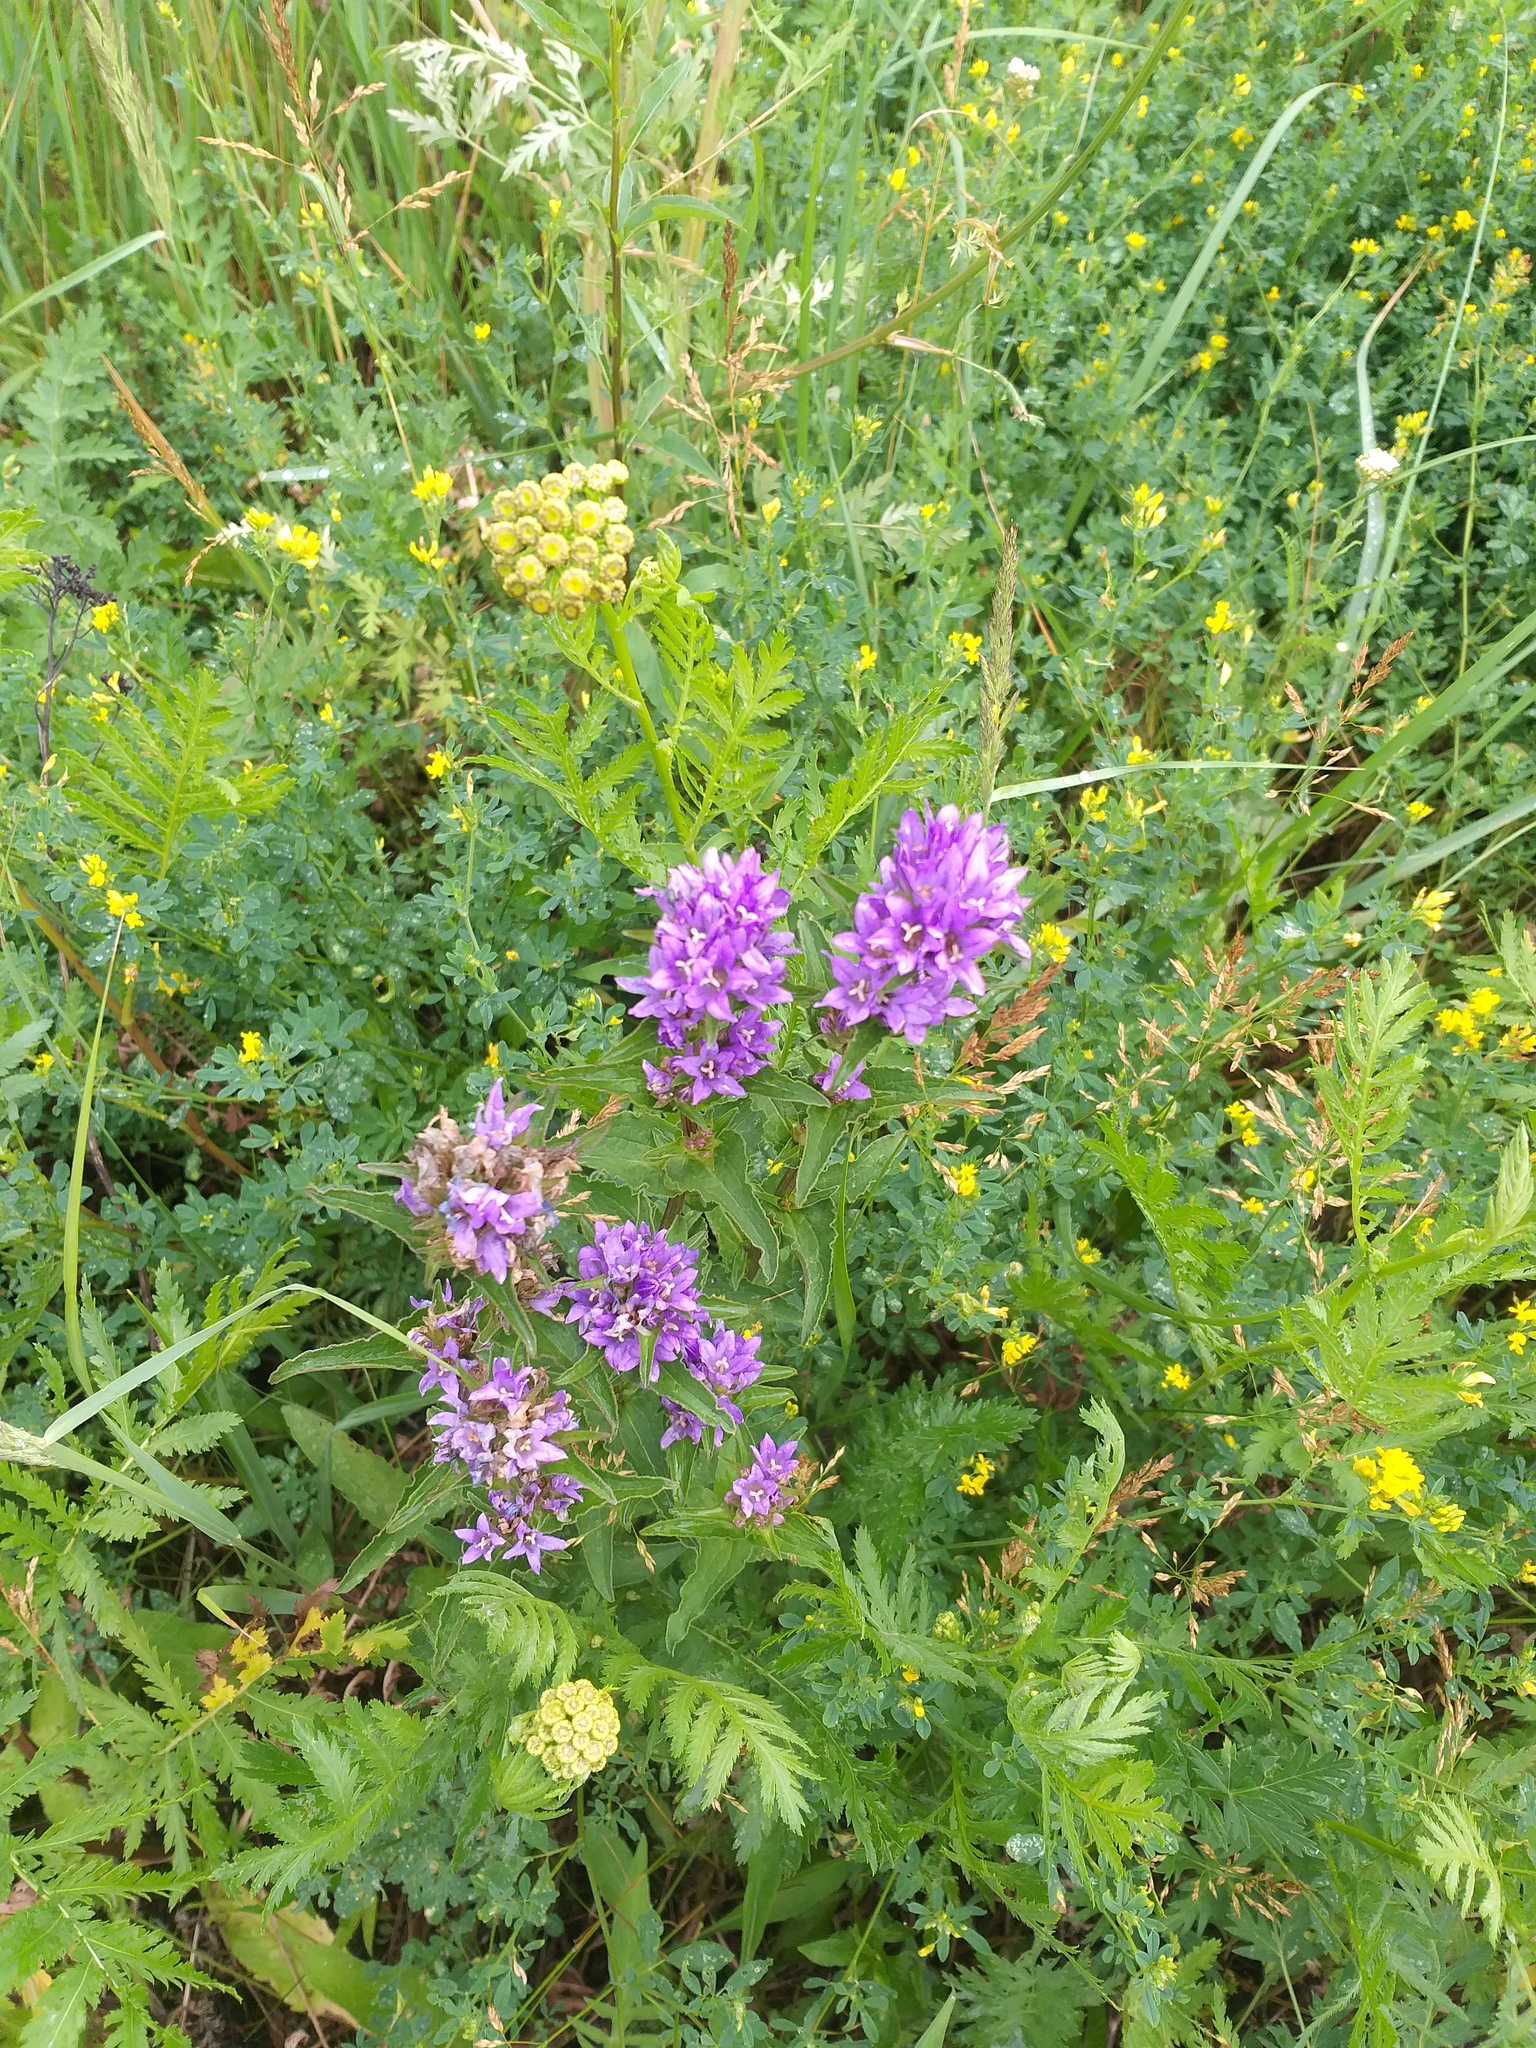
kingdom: Plantae
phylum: Tracheophyta
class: Magnoliopsida
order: Asterales
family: Campanulaceae
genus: Campanula
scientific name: Campanula glomerata
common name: Clustered bellflower
